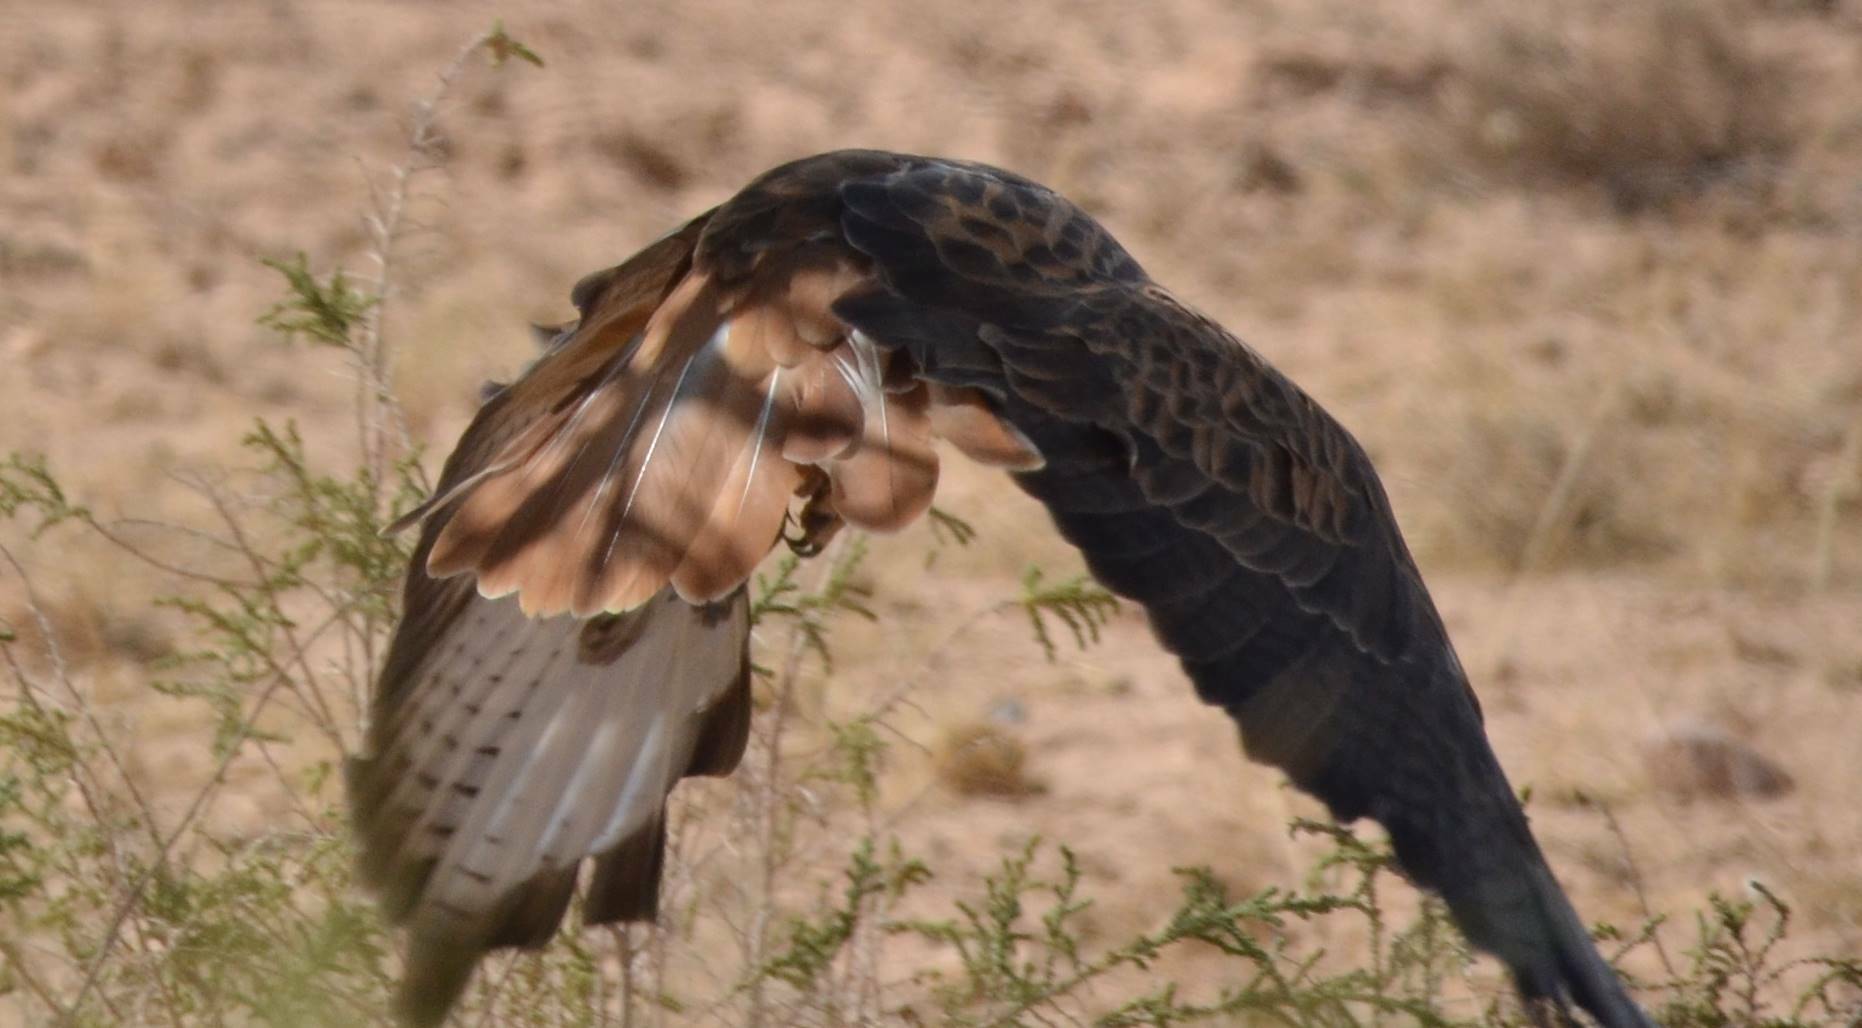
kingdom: Animalia
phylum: Chordata
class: Aves
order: Accipitriformes
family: Accipitridae
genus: Buteo
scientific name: Buteo rufinus
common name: Long-legged buzzard
